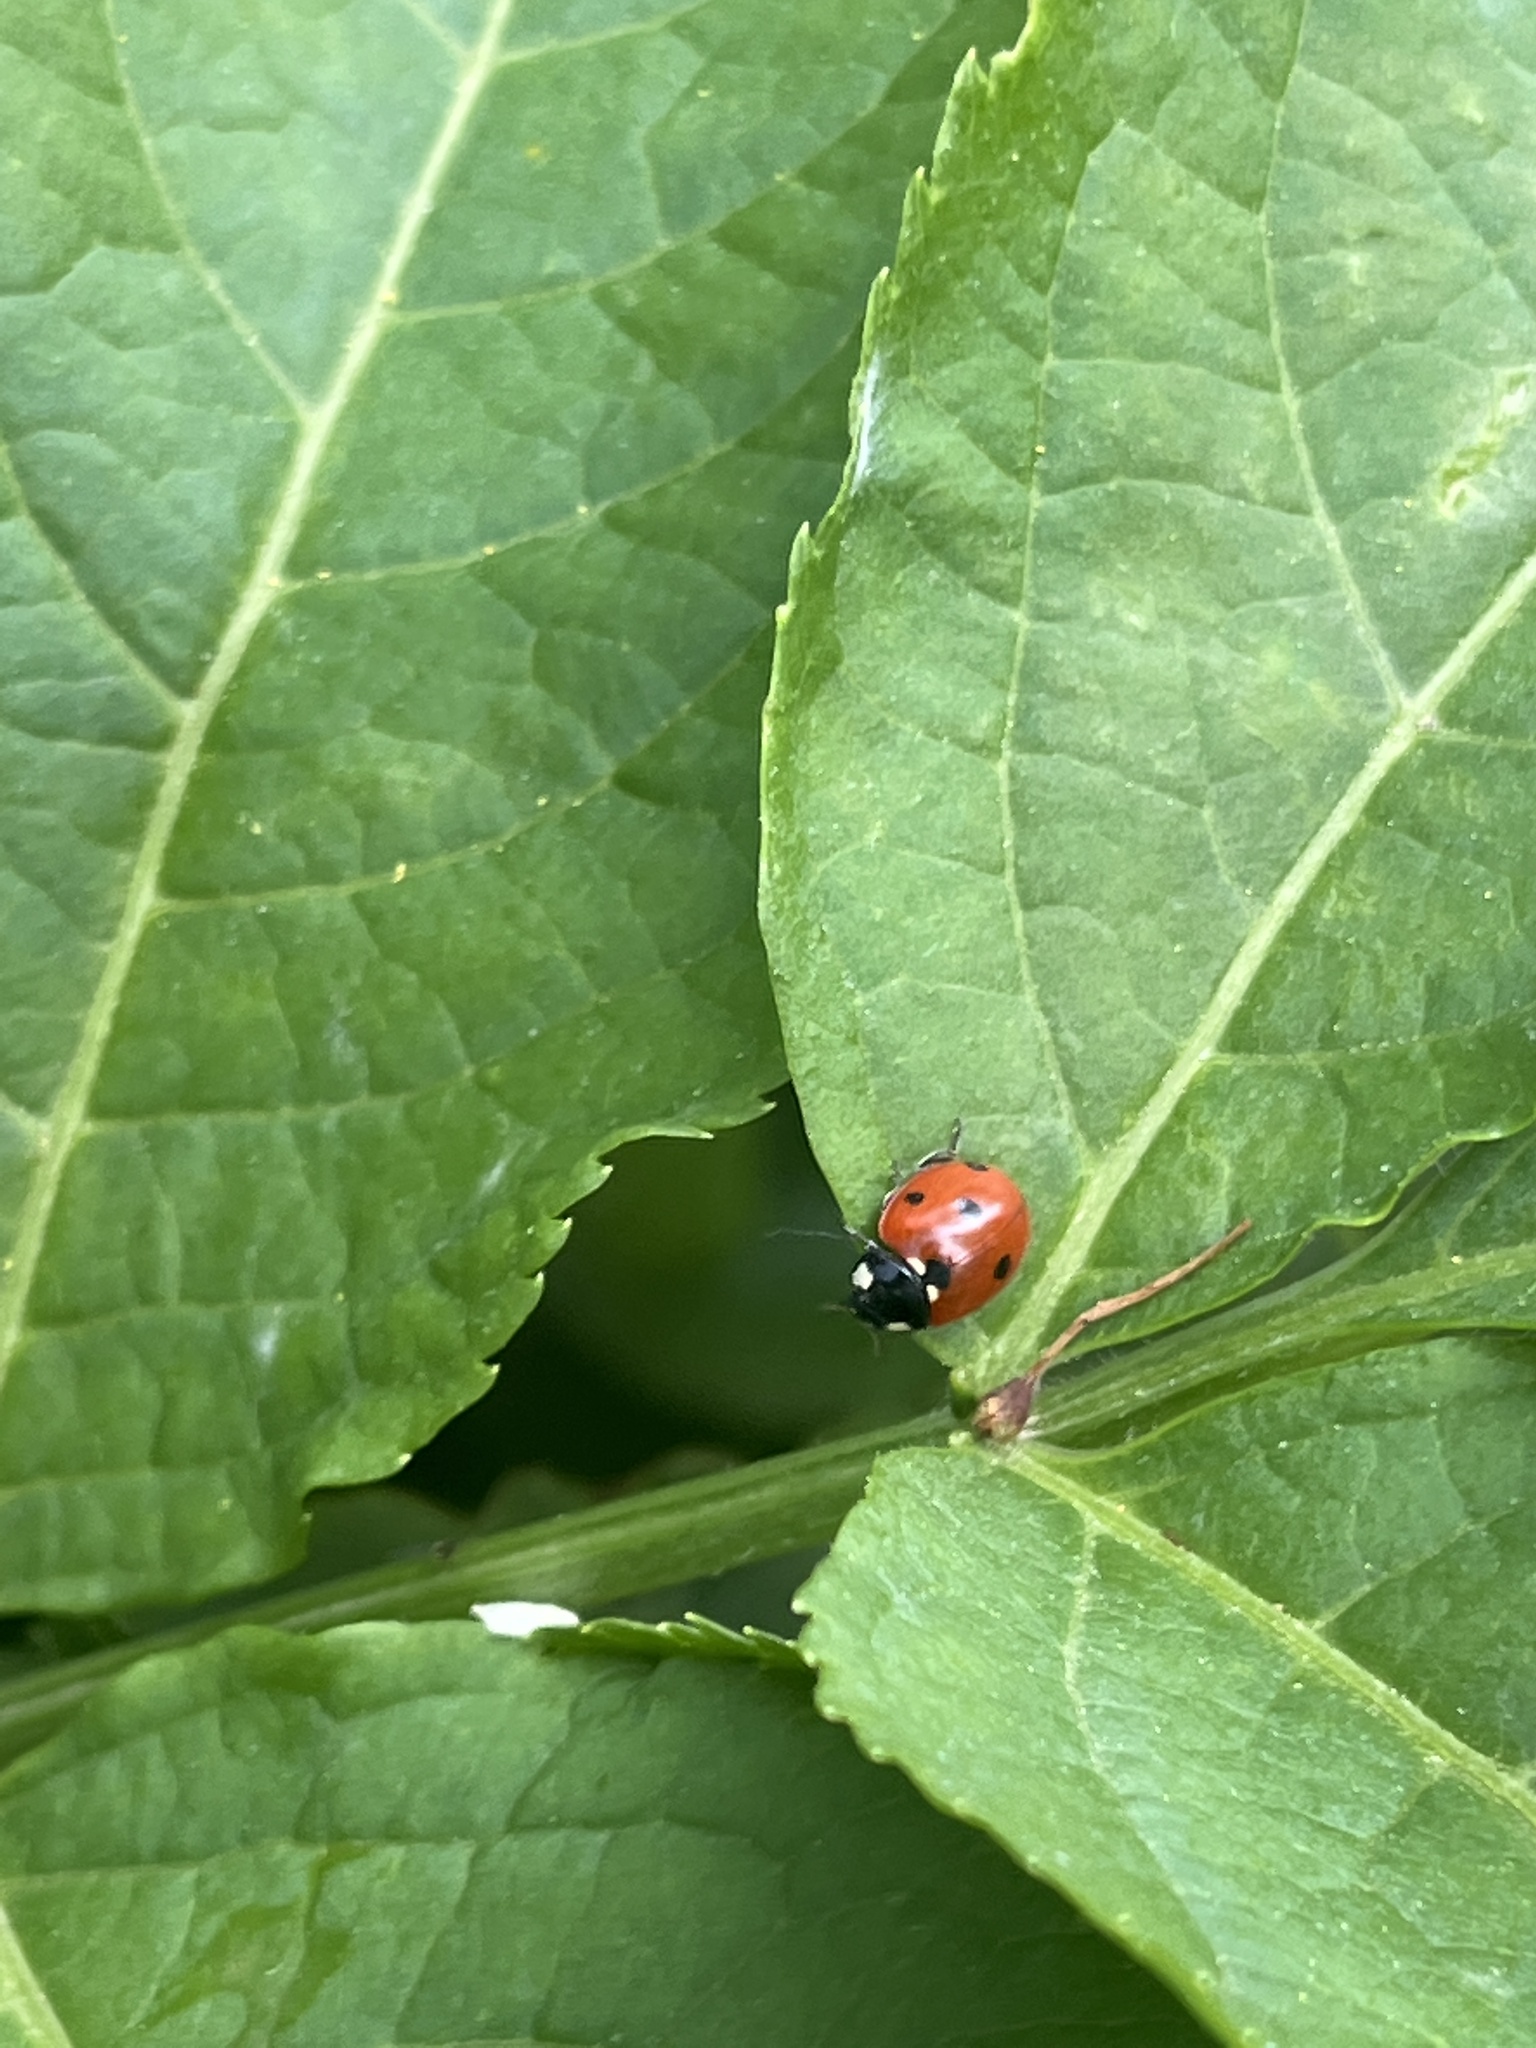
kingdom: Animalia
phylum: Arthropoda
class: Insecta
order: Coleoptera
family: Coccinellidae
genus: Coccinella
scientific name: Coccinella septempunctata
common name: Sevenspotted lady beetle
